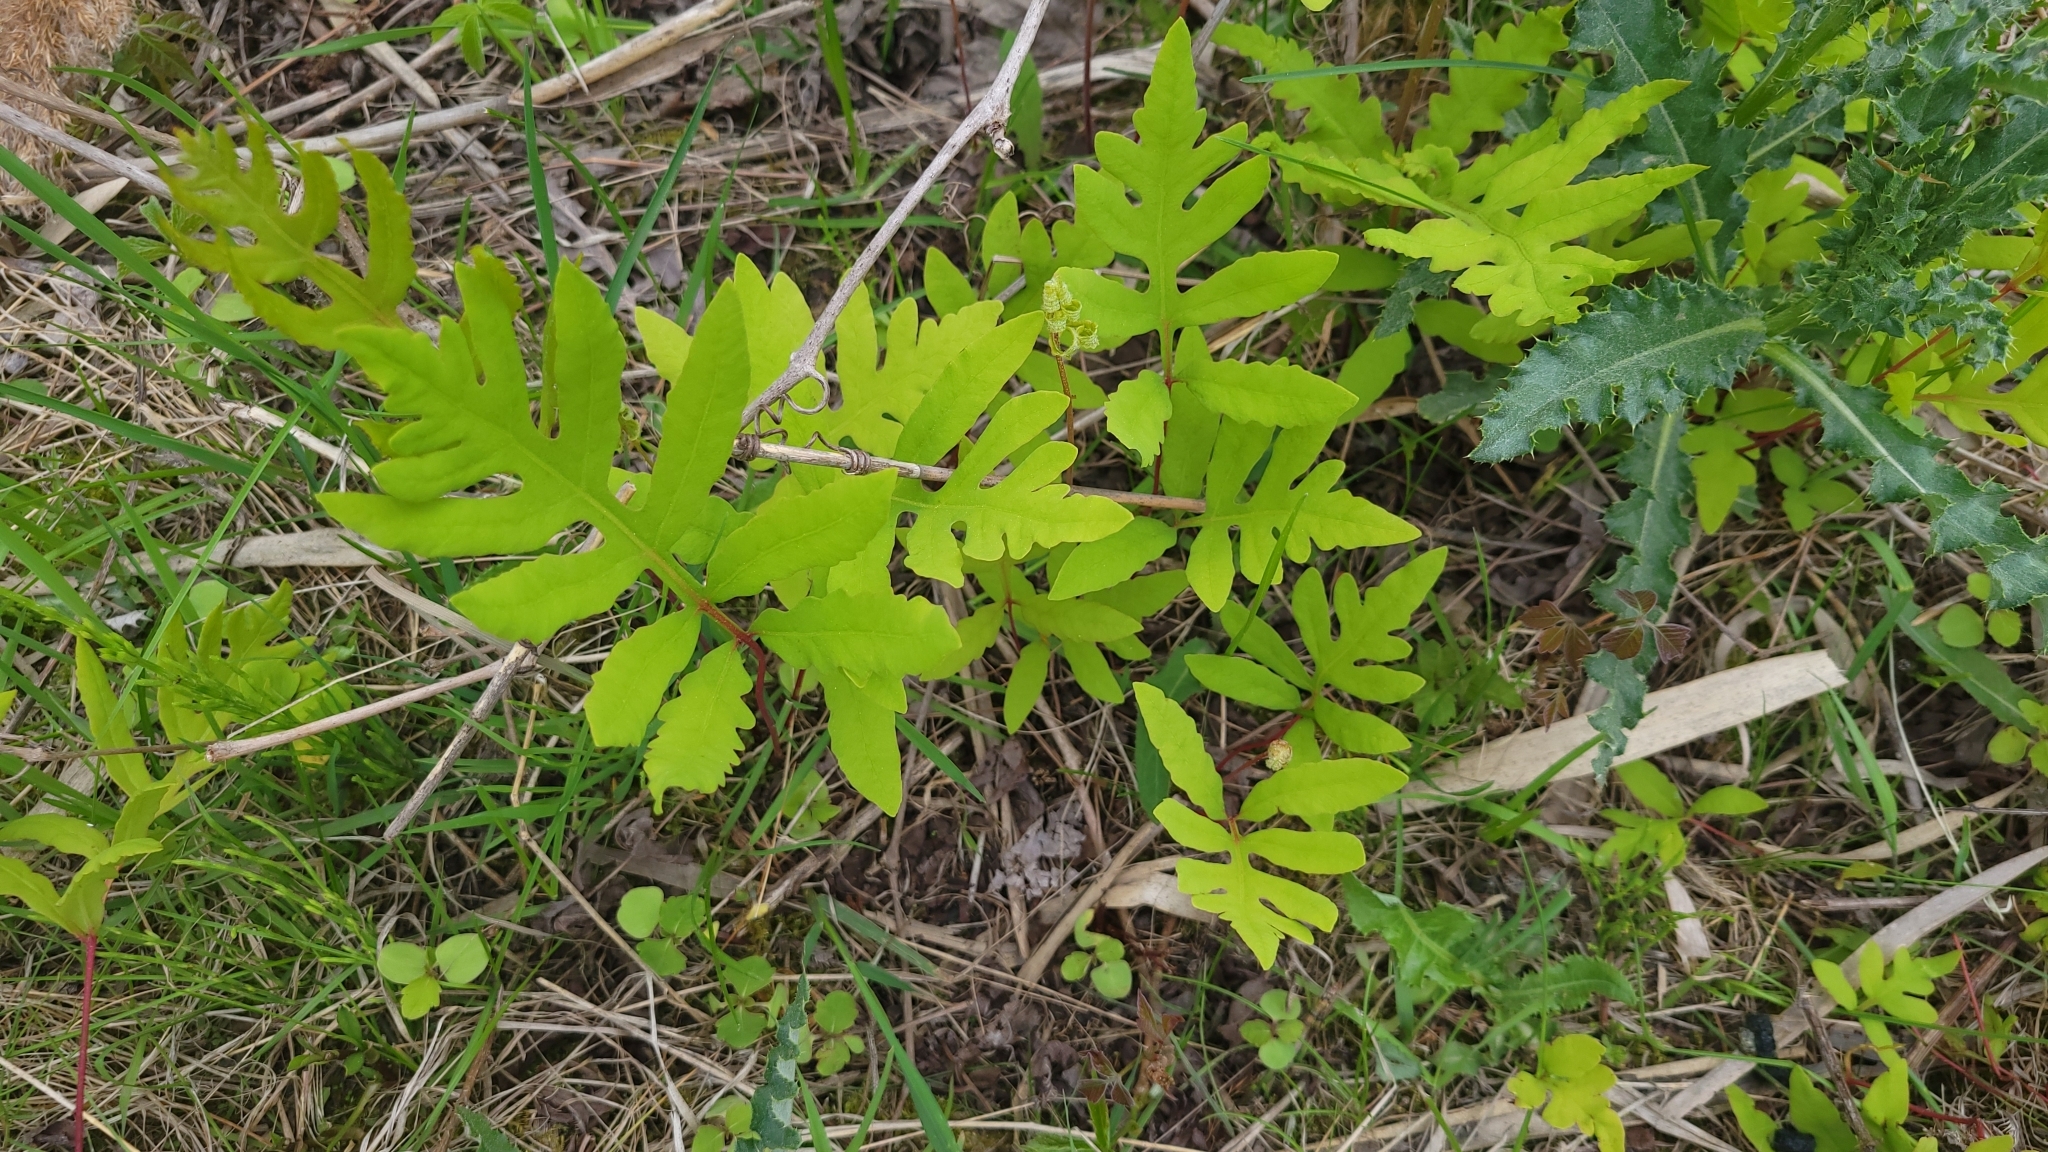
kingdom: Plantae
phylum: Tracheophyta
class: Polypodiopsida
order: Polypodiales
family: Onocleaceae
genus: Onoclea
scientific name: Onoclea sensibilis
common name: Sensitive fern
